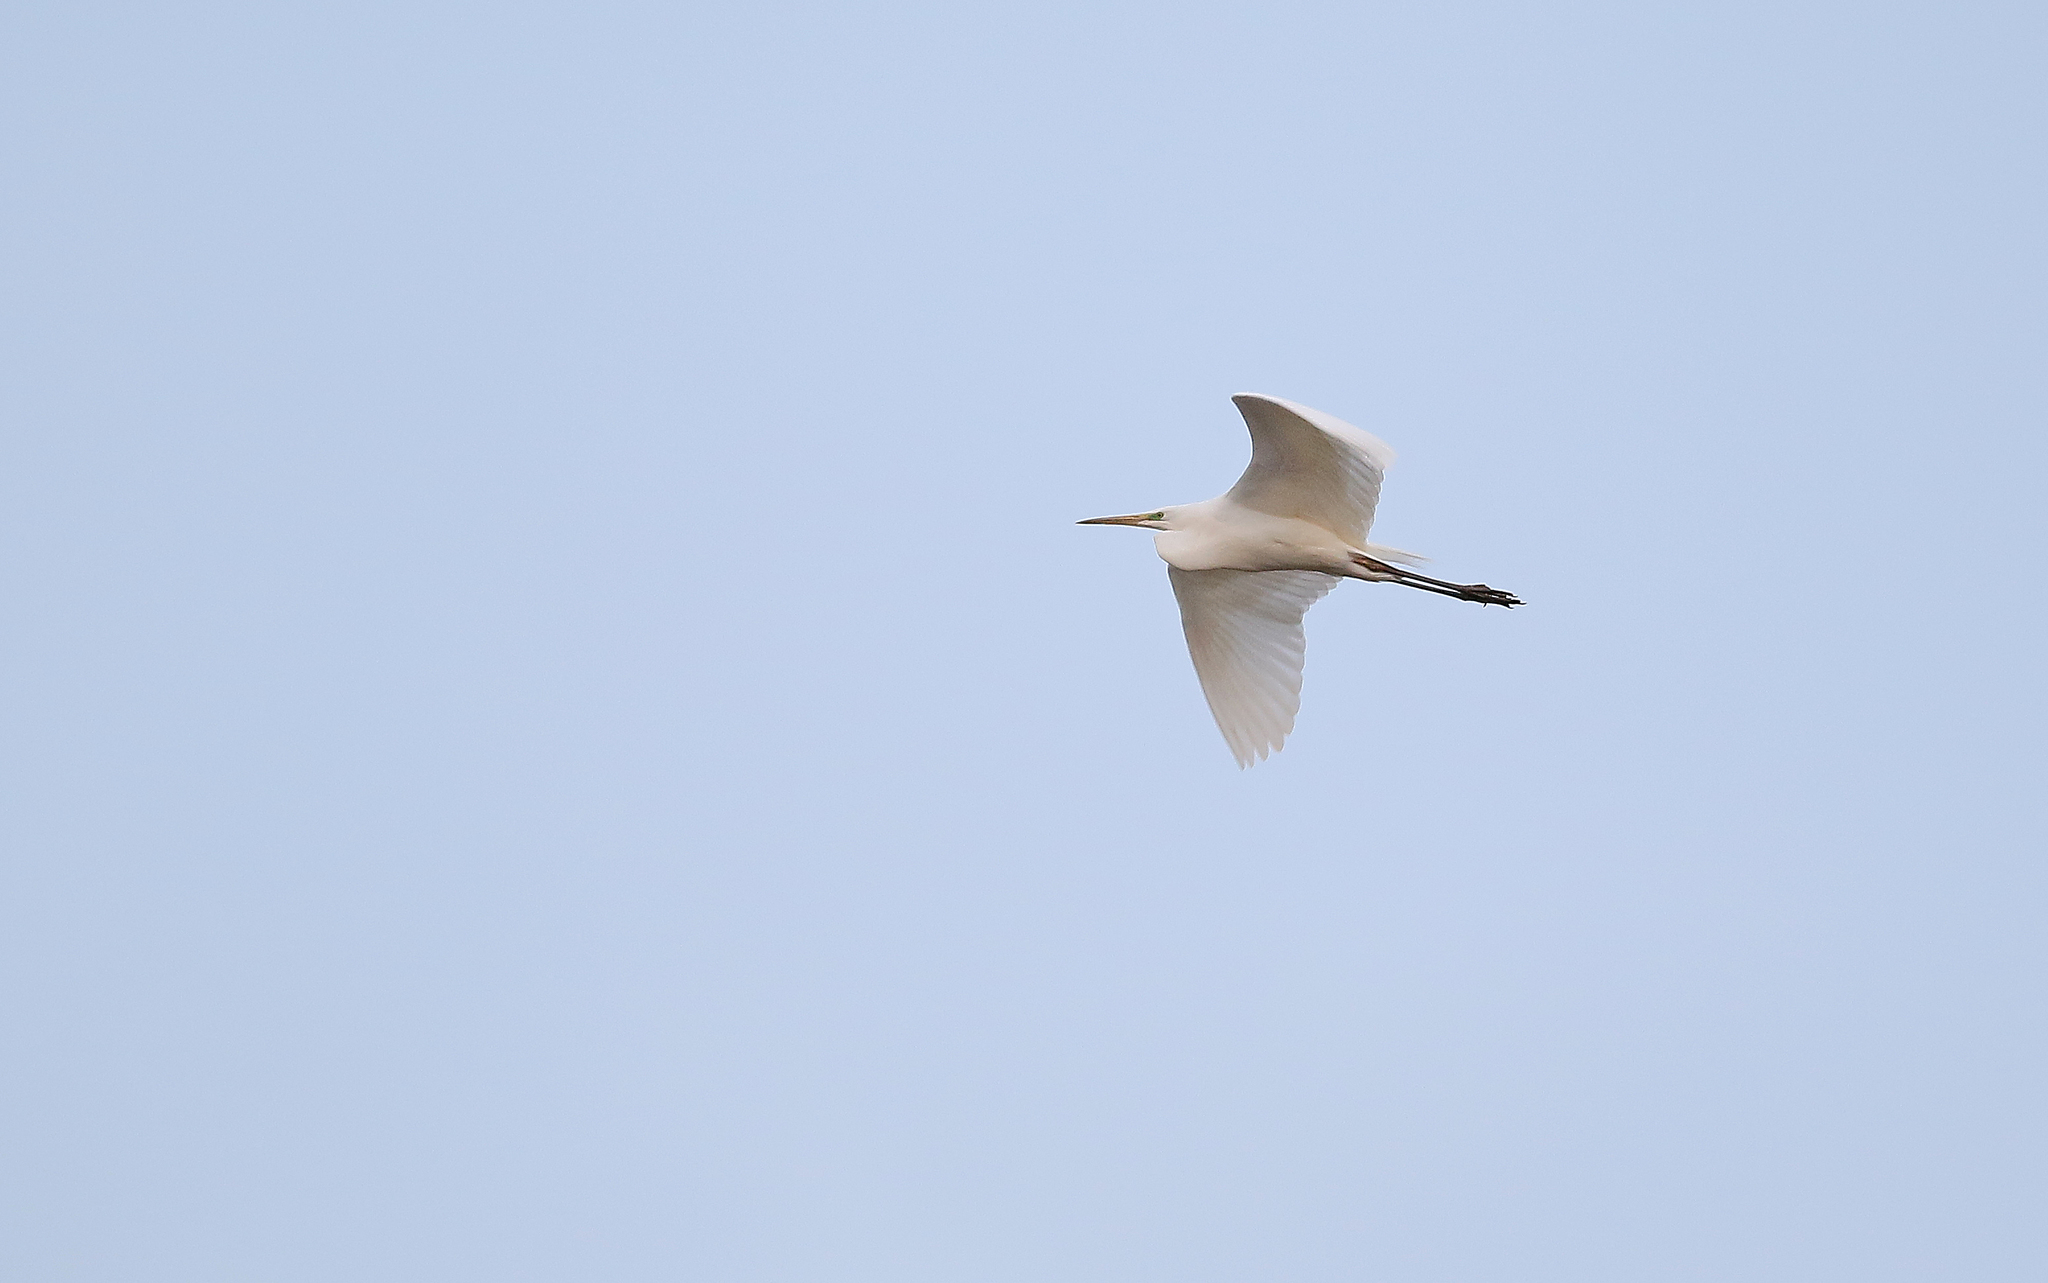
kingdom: Animalia
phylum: Chordata
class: Aves
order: Pelecaniformes
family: Ardeidae
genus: Ardea
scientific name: Ardea alba
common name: Great egret
